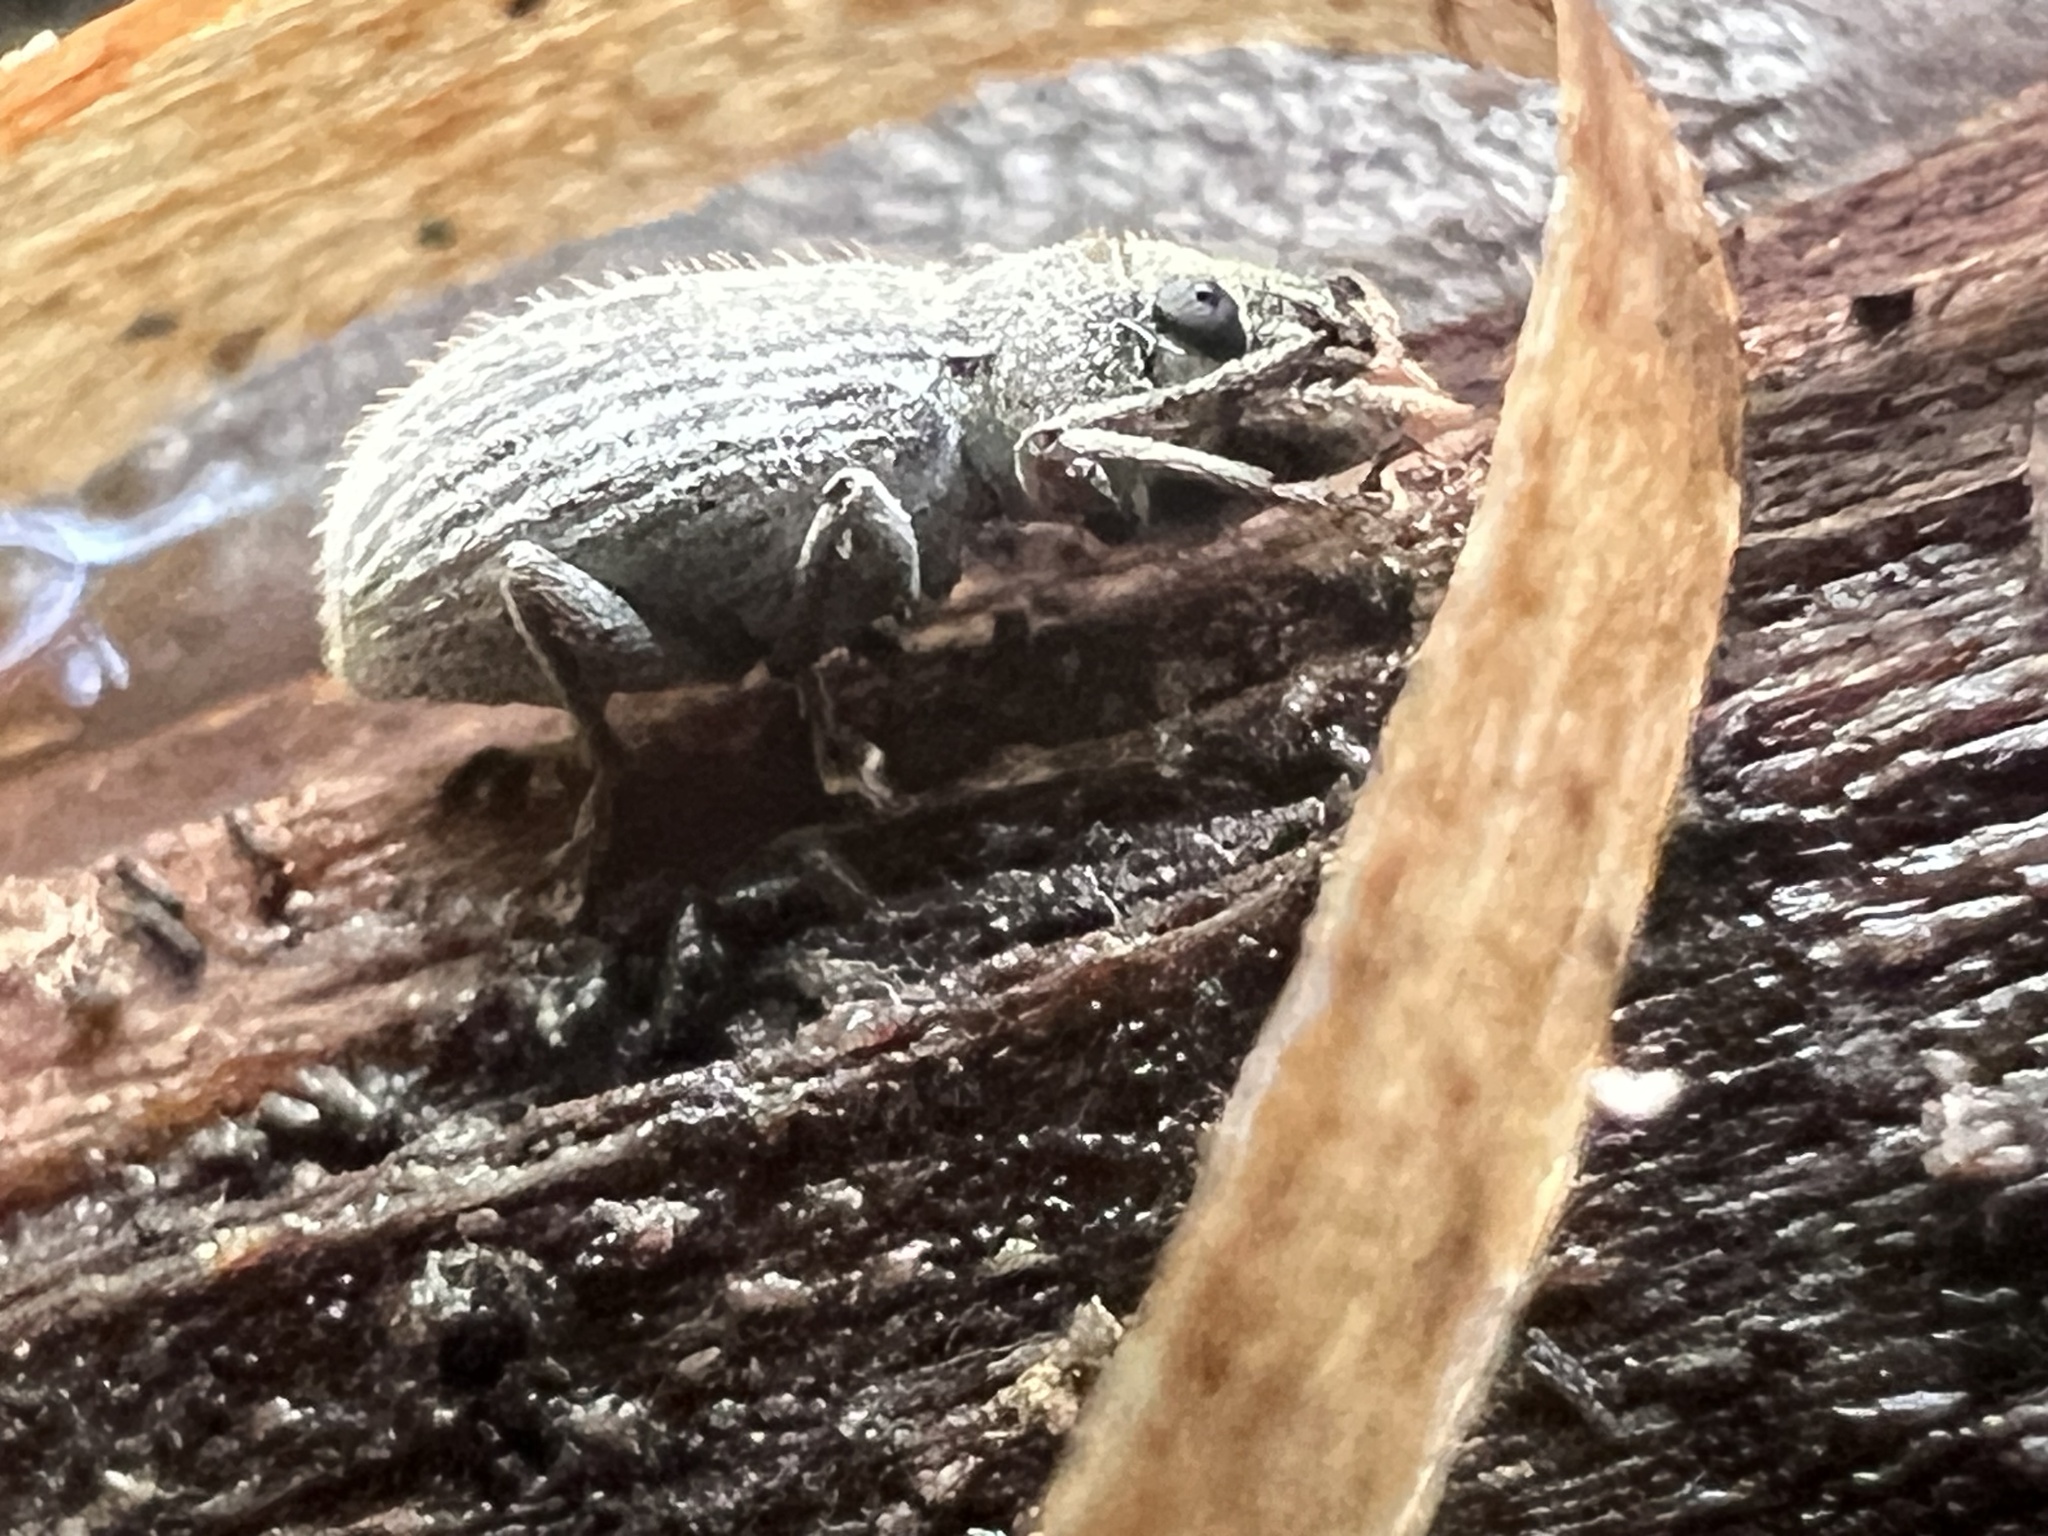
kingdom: Animalia
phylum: Arthropoda
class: Insecta
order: Coleoptera
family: Curculionidae
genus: Cyrtepistomus
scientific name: Cyrtepistomus castaneus
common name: Weevil
